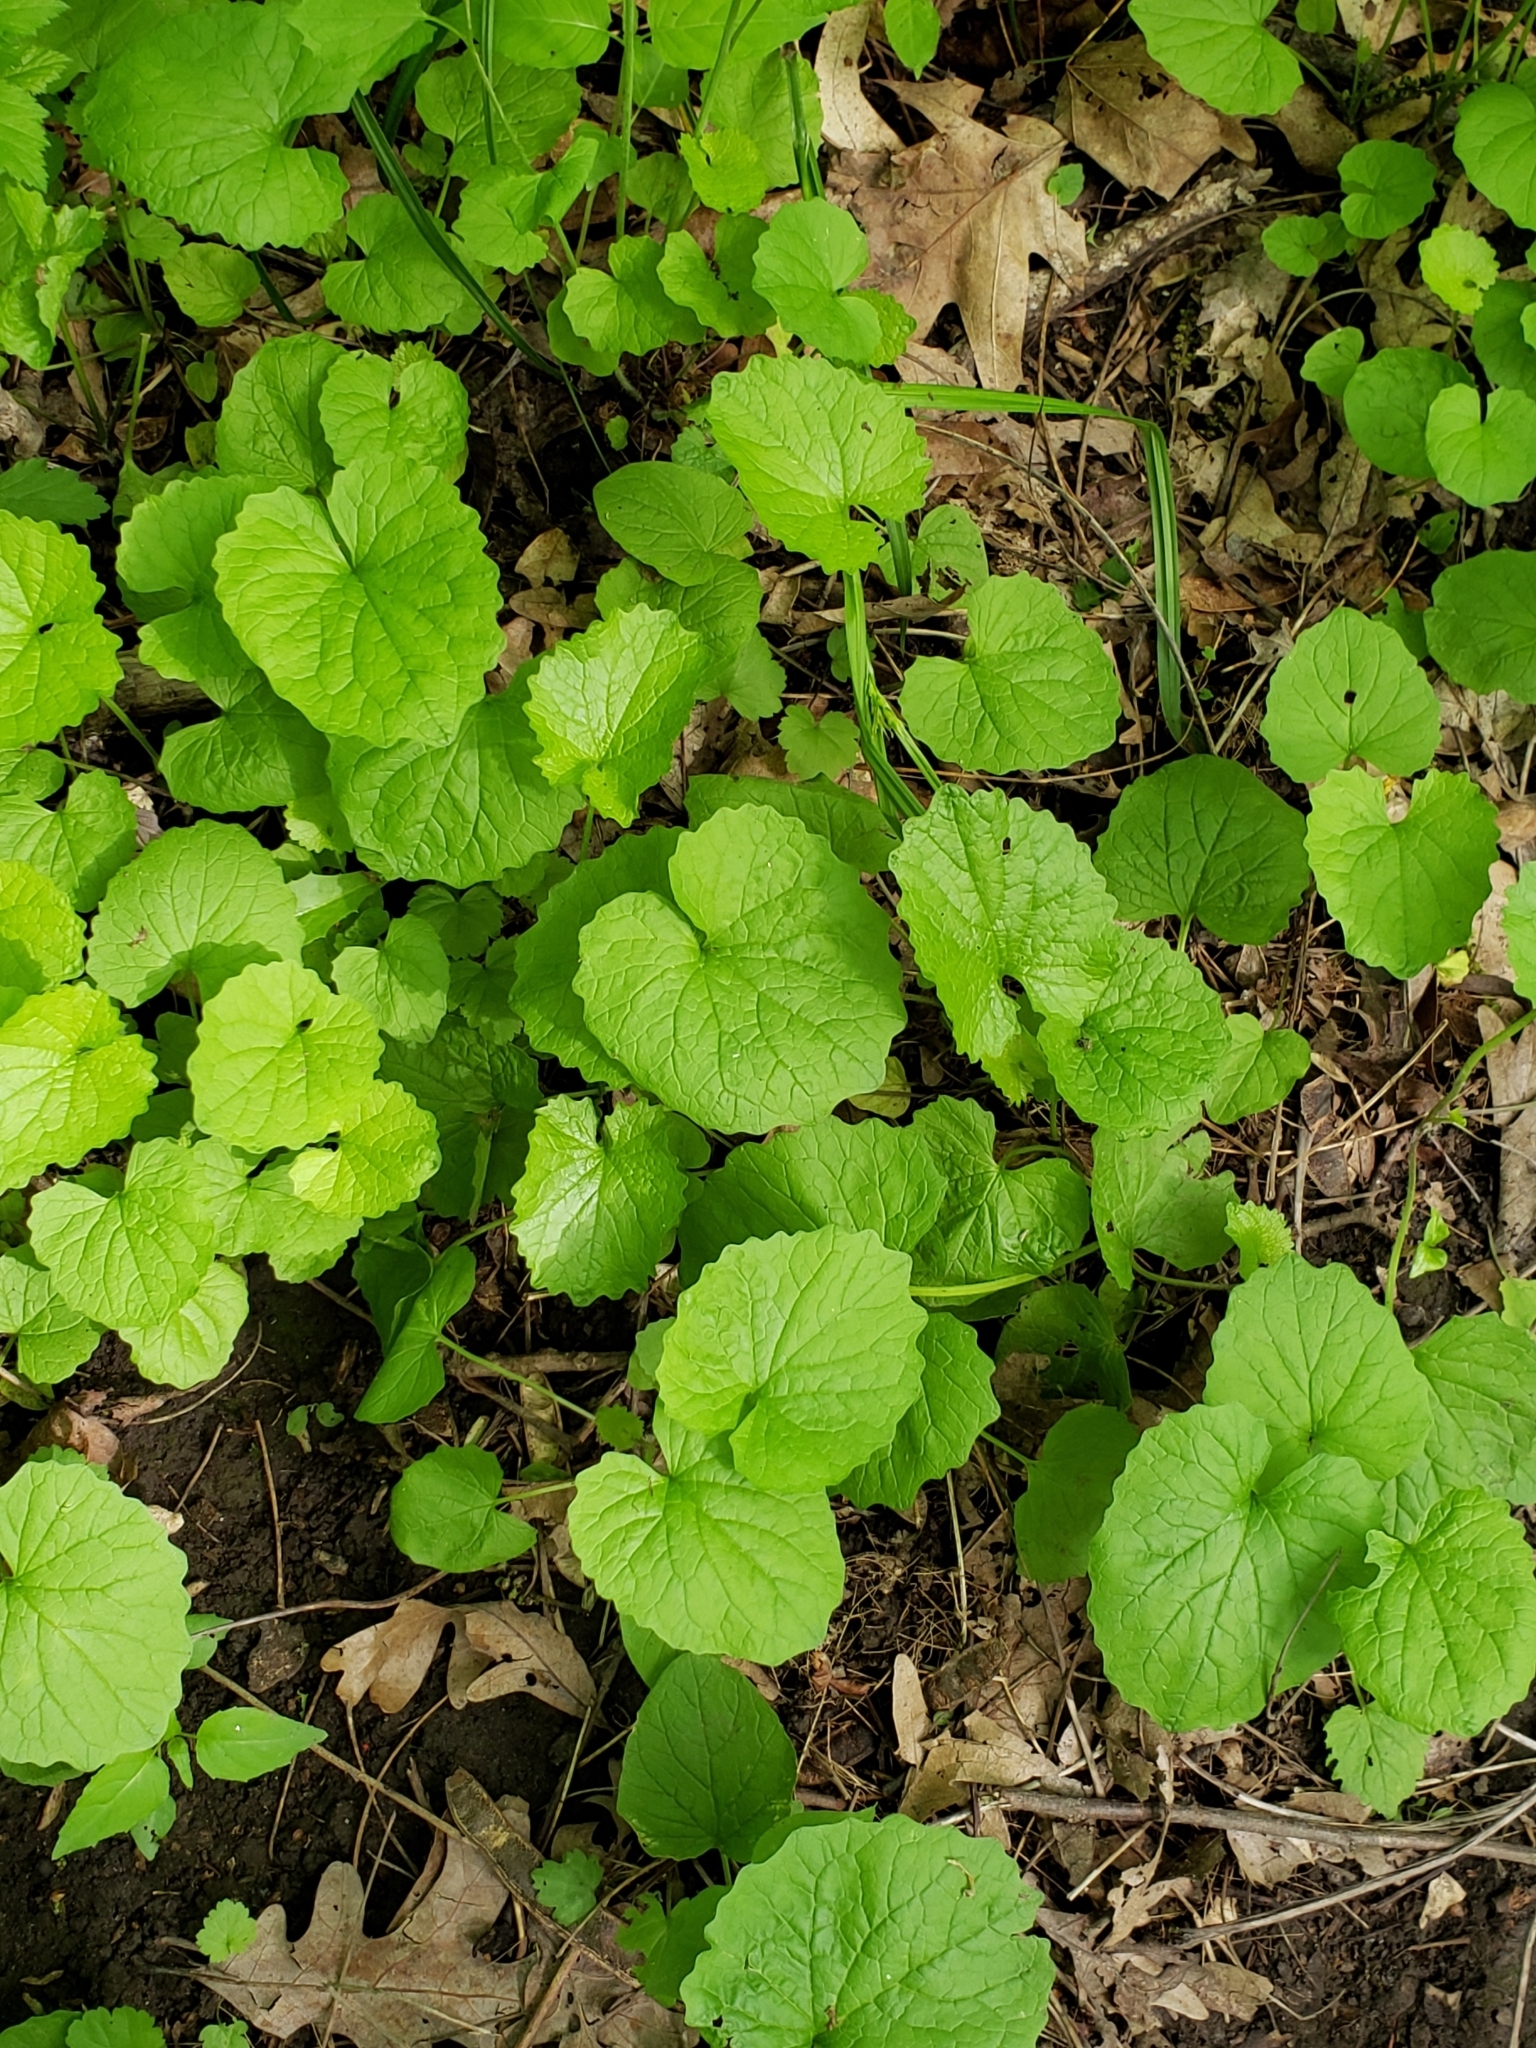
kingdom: Plantae
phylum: Tracheophyta
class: Magnoliopsida
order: Brassicales
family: Brassicaceae
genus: Alliaria
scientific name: Alliaria petiolata
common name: Garlic mustard
